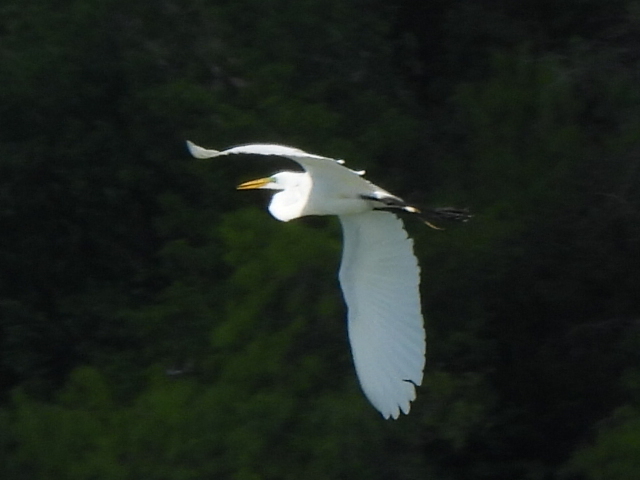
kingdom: Animalia
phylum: Chordata
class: Aves
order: Pelecaniformes
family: Ardeidae
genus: Ardea
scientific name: Ardea alba
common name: Great egret
